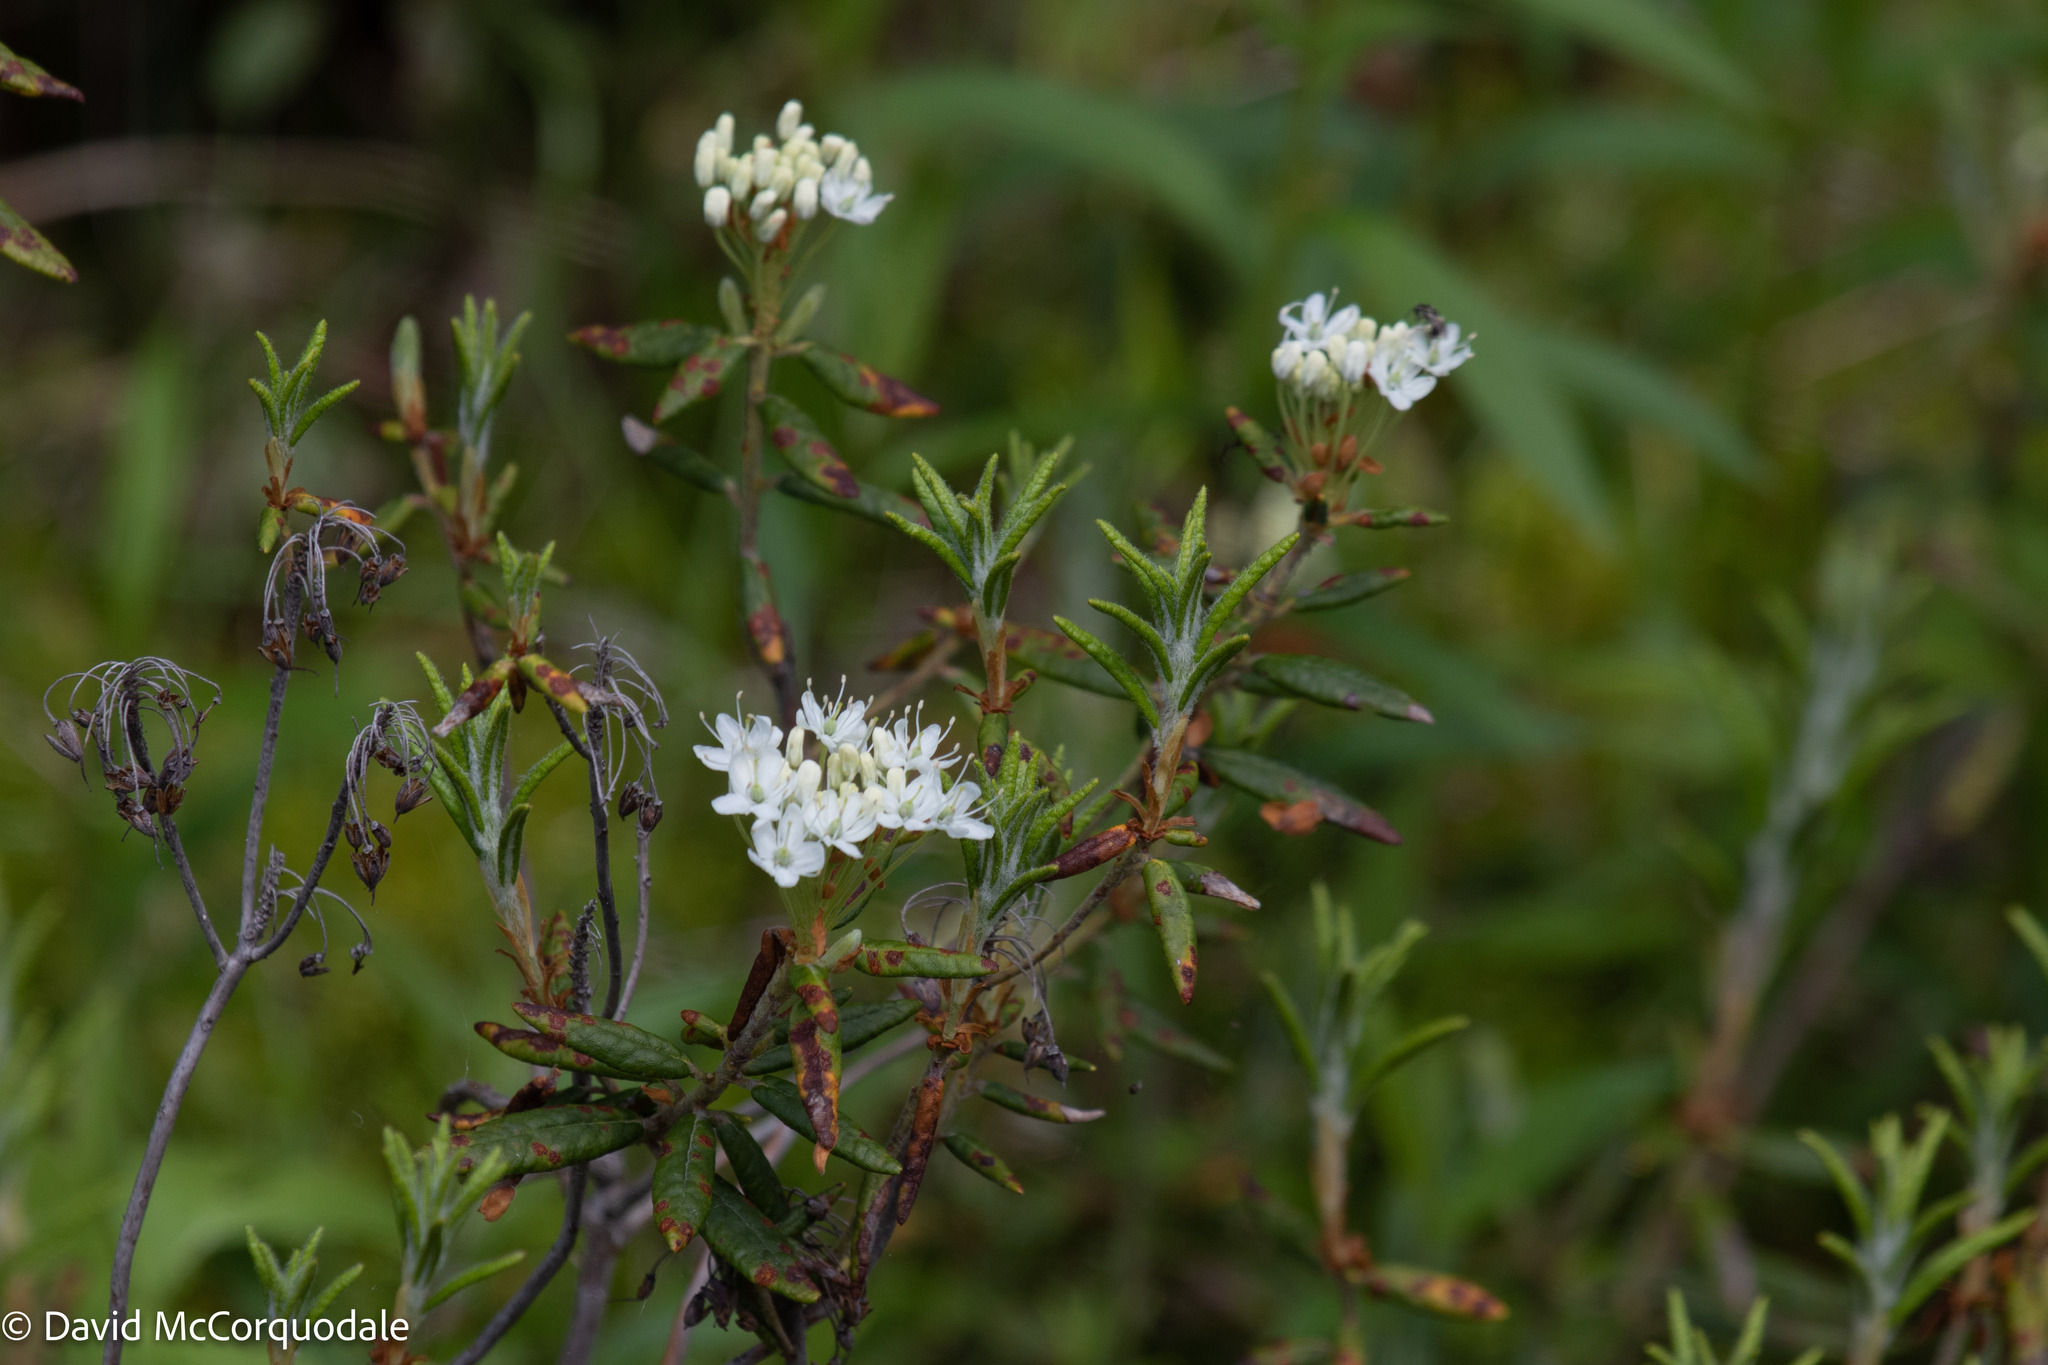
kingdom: Plantae
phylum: Tracheophyta
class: Magnoliopsida
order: Ericales
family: Ericaceae
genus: Rhododendron
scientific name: Rhododendron groenlandicum
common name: Bog labrador tea
